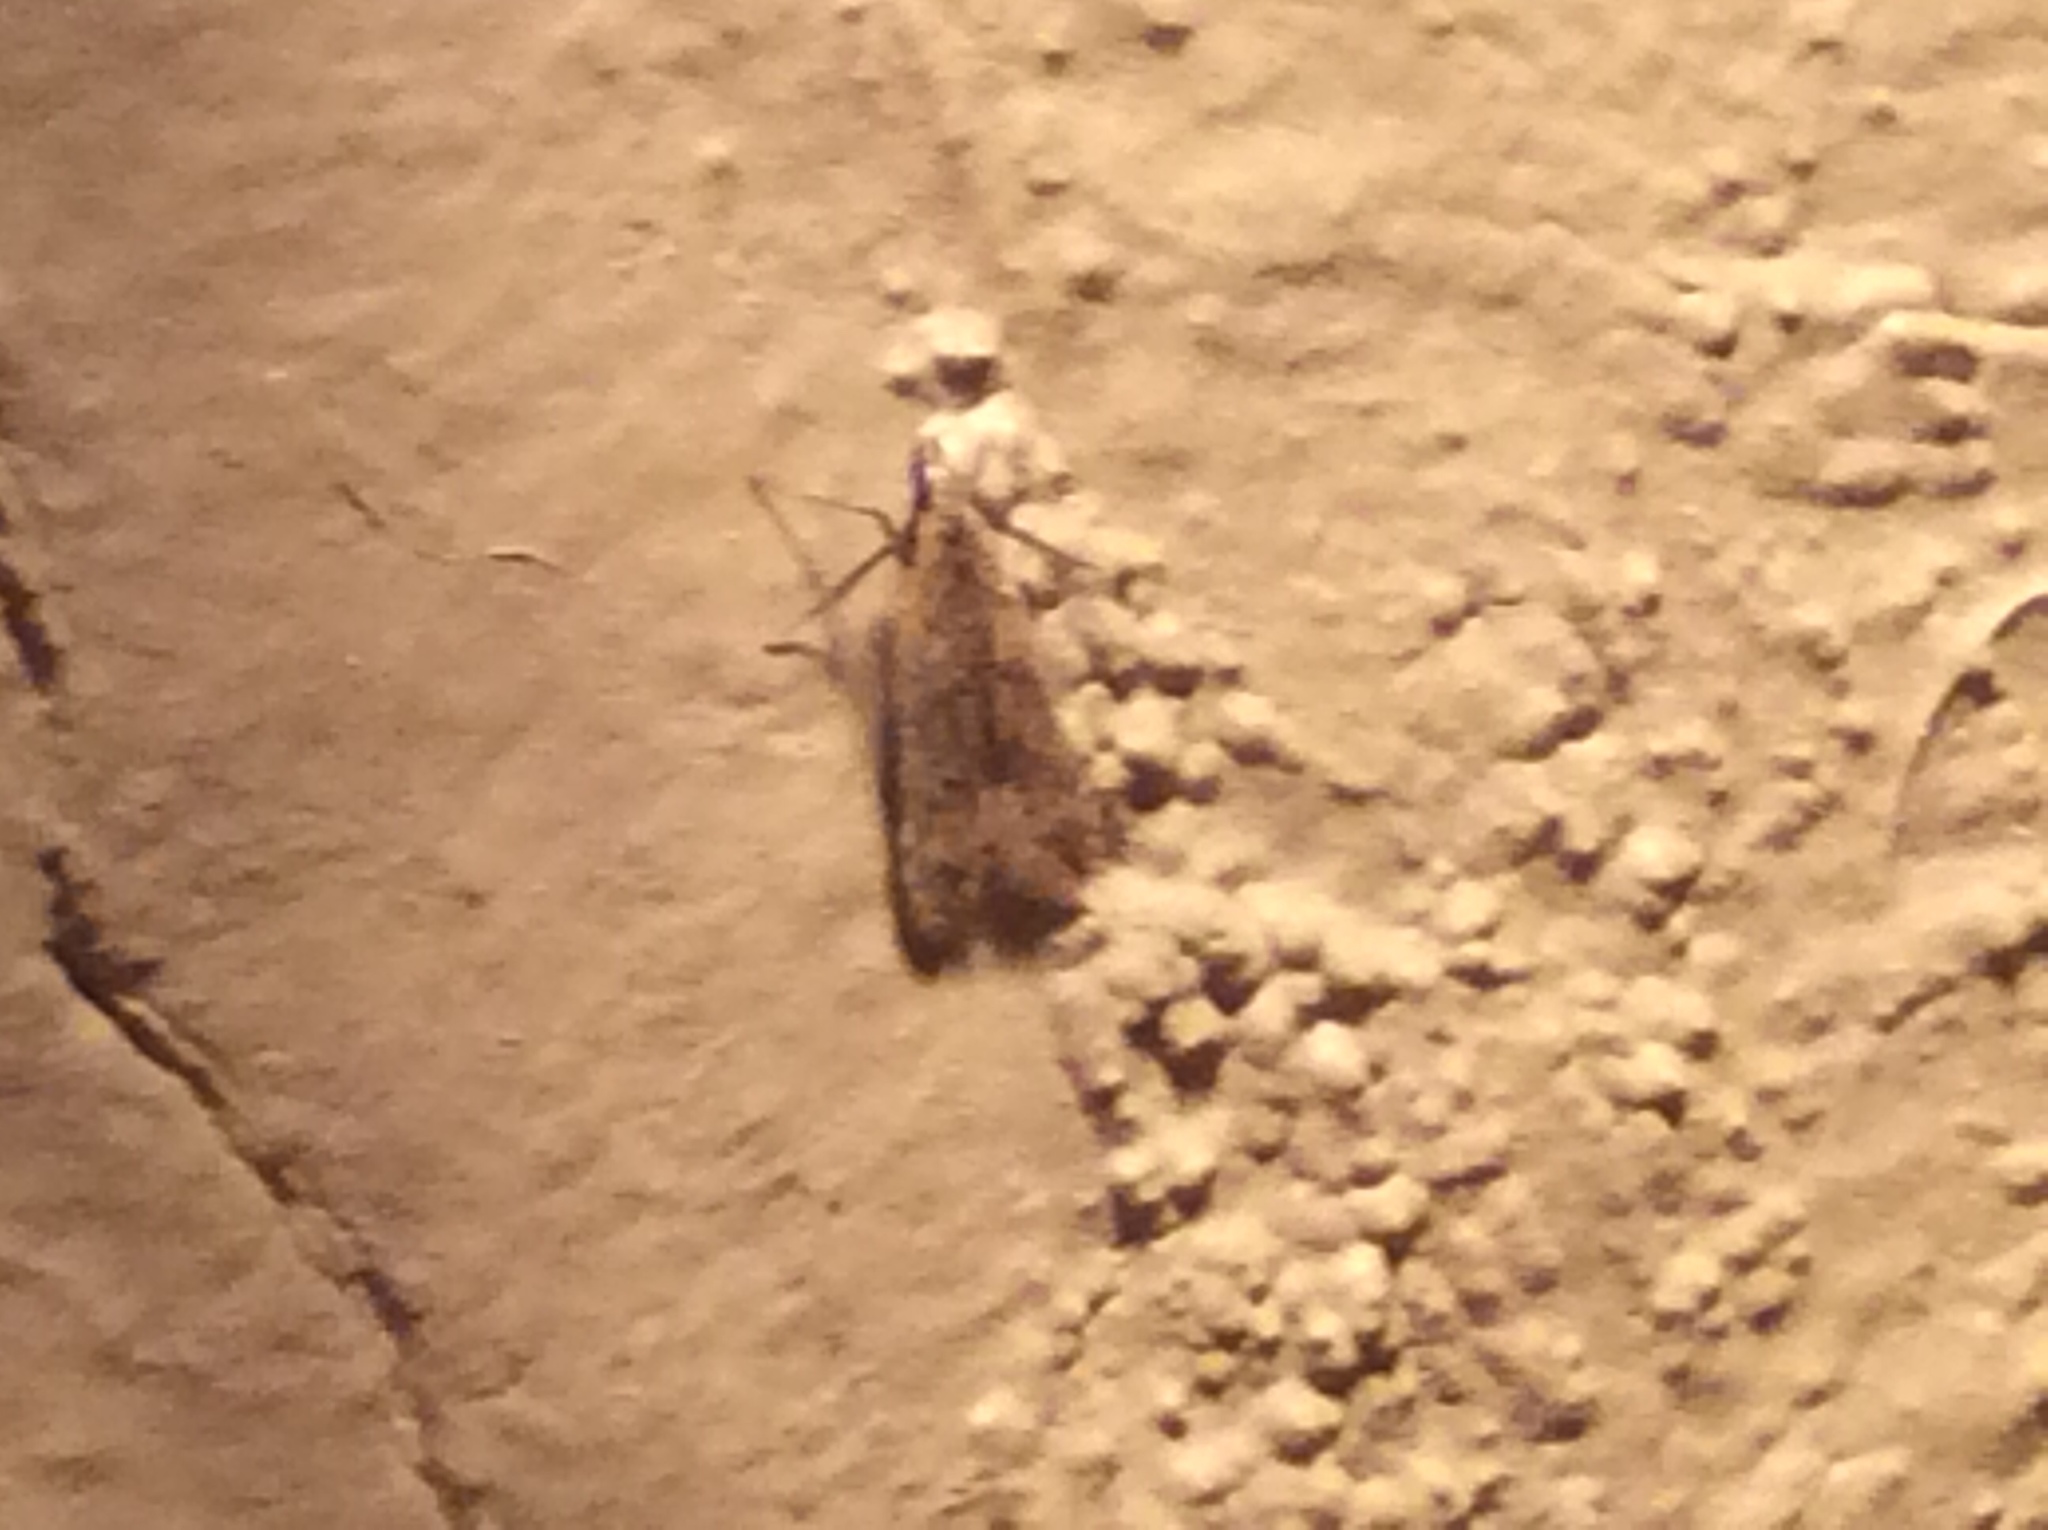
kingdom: Animalia
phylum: Arthropoda
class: Insecta
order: Lepidoptera
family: Gelechiidae
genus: Dichomeris
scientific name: Dichomeris punctipennella
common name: Many-spotted dichomeris moth
